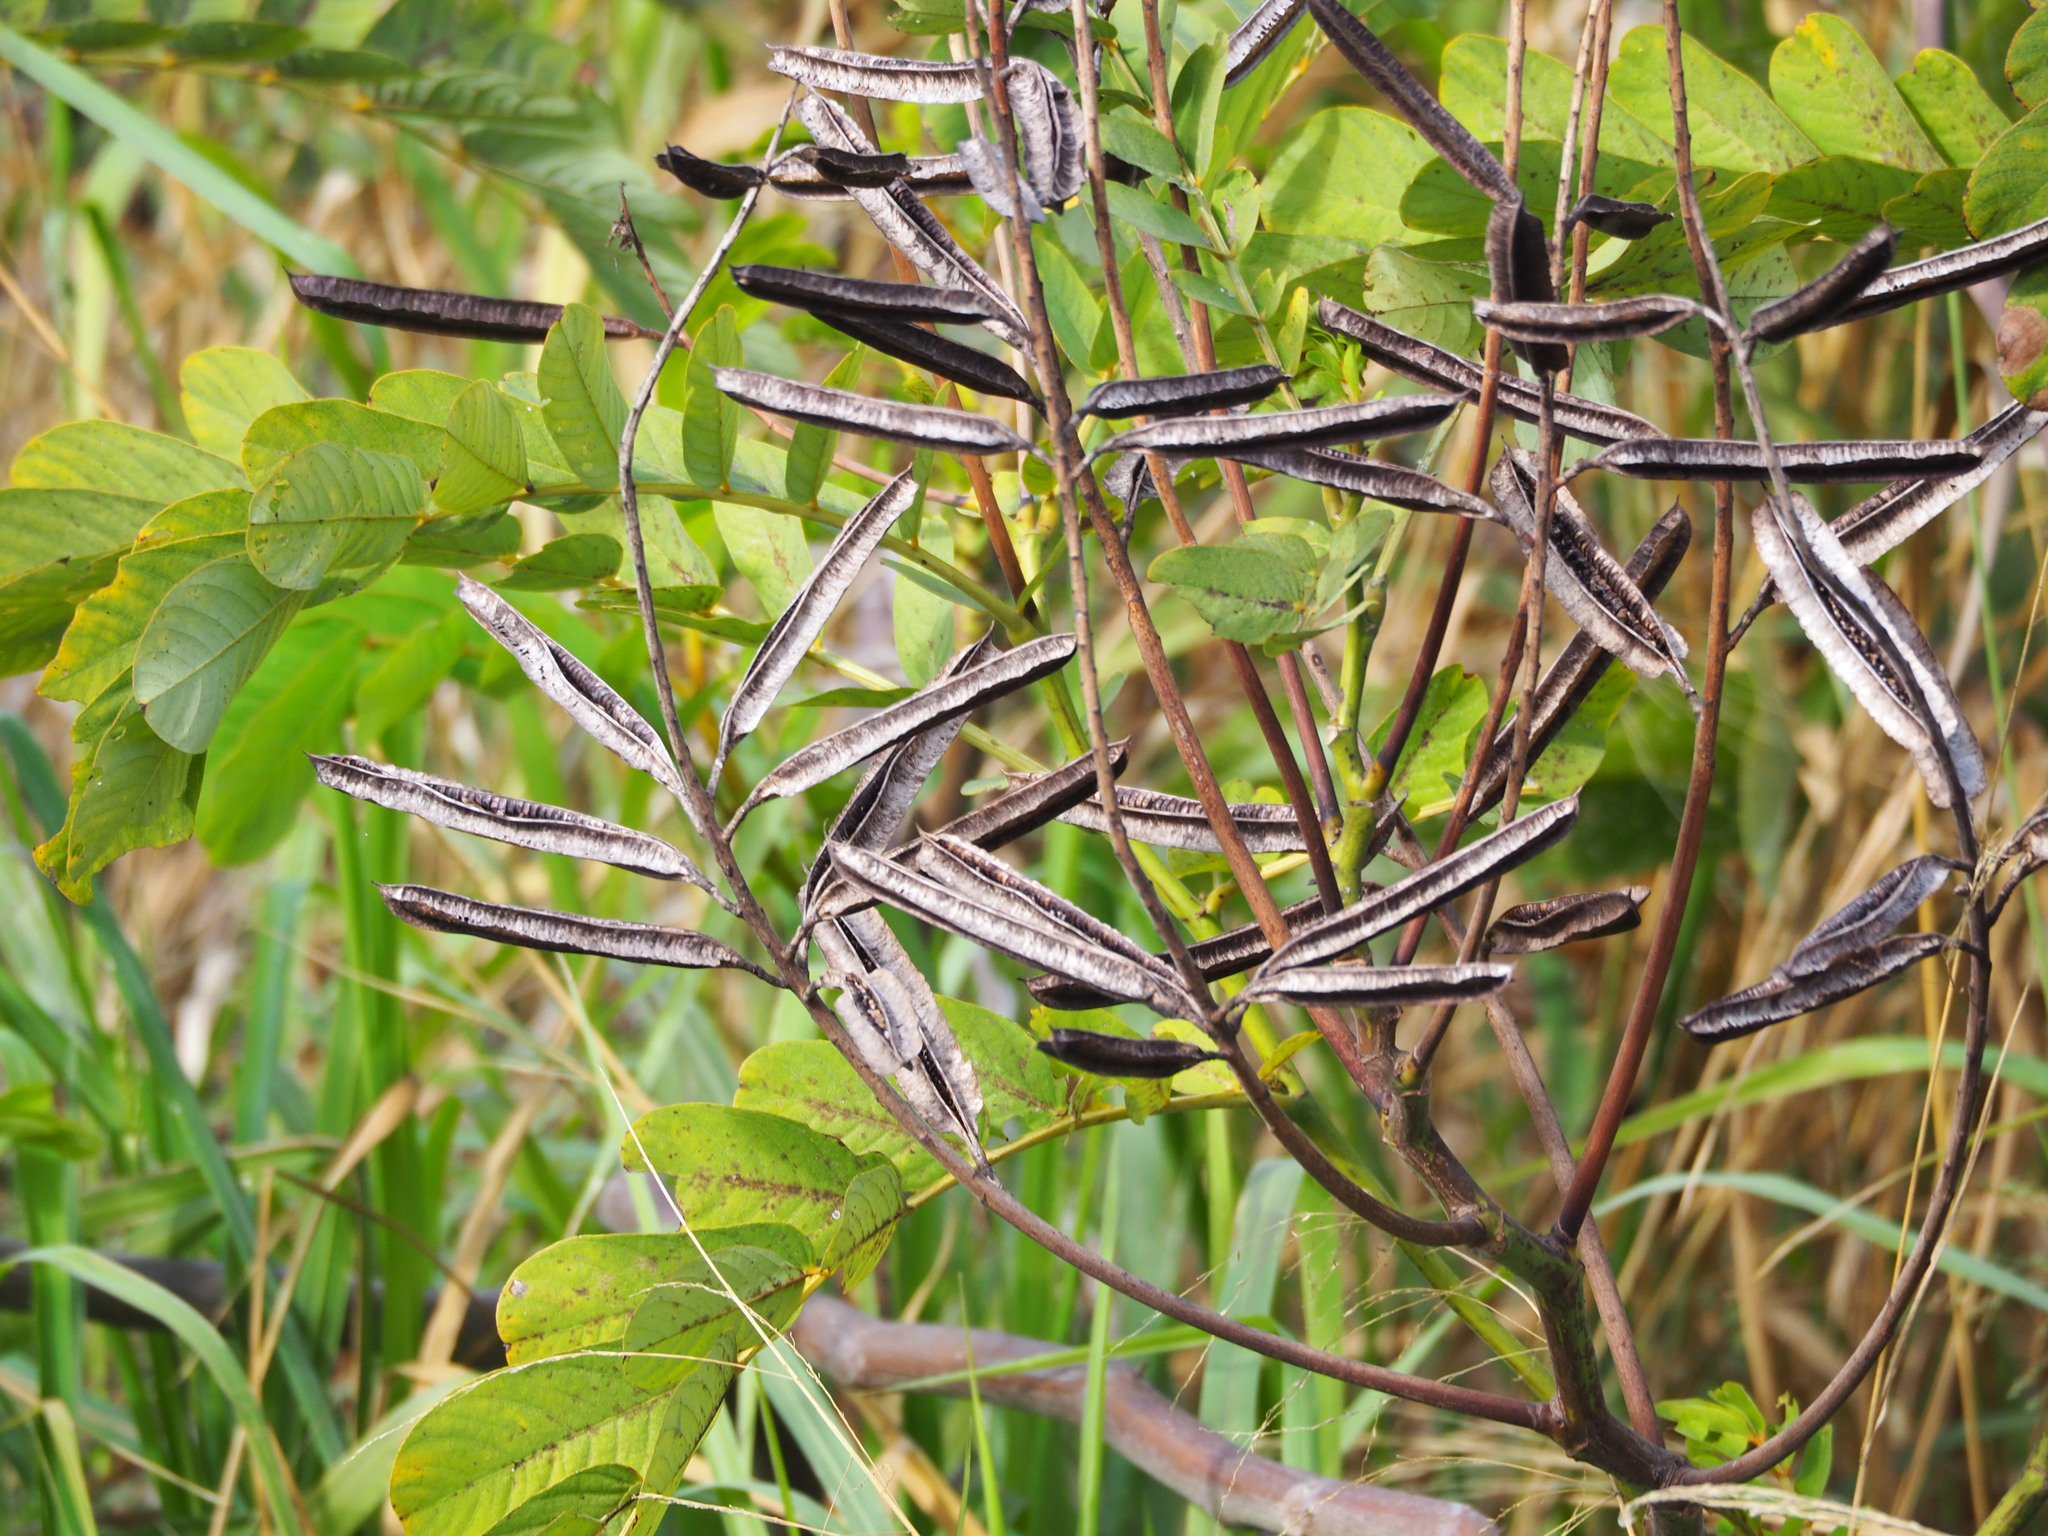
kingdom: Plantae
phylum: Tracheophyta
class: Magnoliopsida
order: Fabales
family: Fabaceae
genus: Senna
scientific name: Senna alata
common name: Emperor's candlesticks
